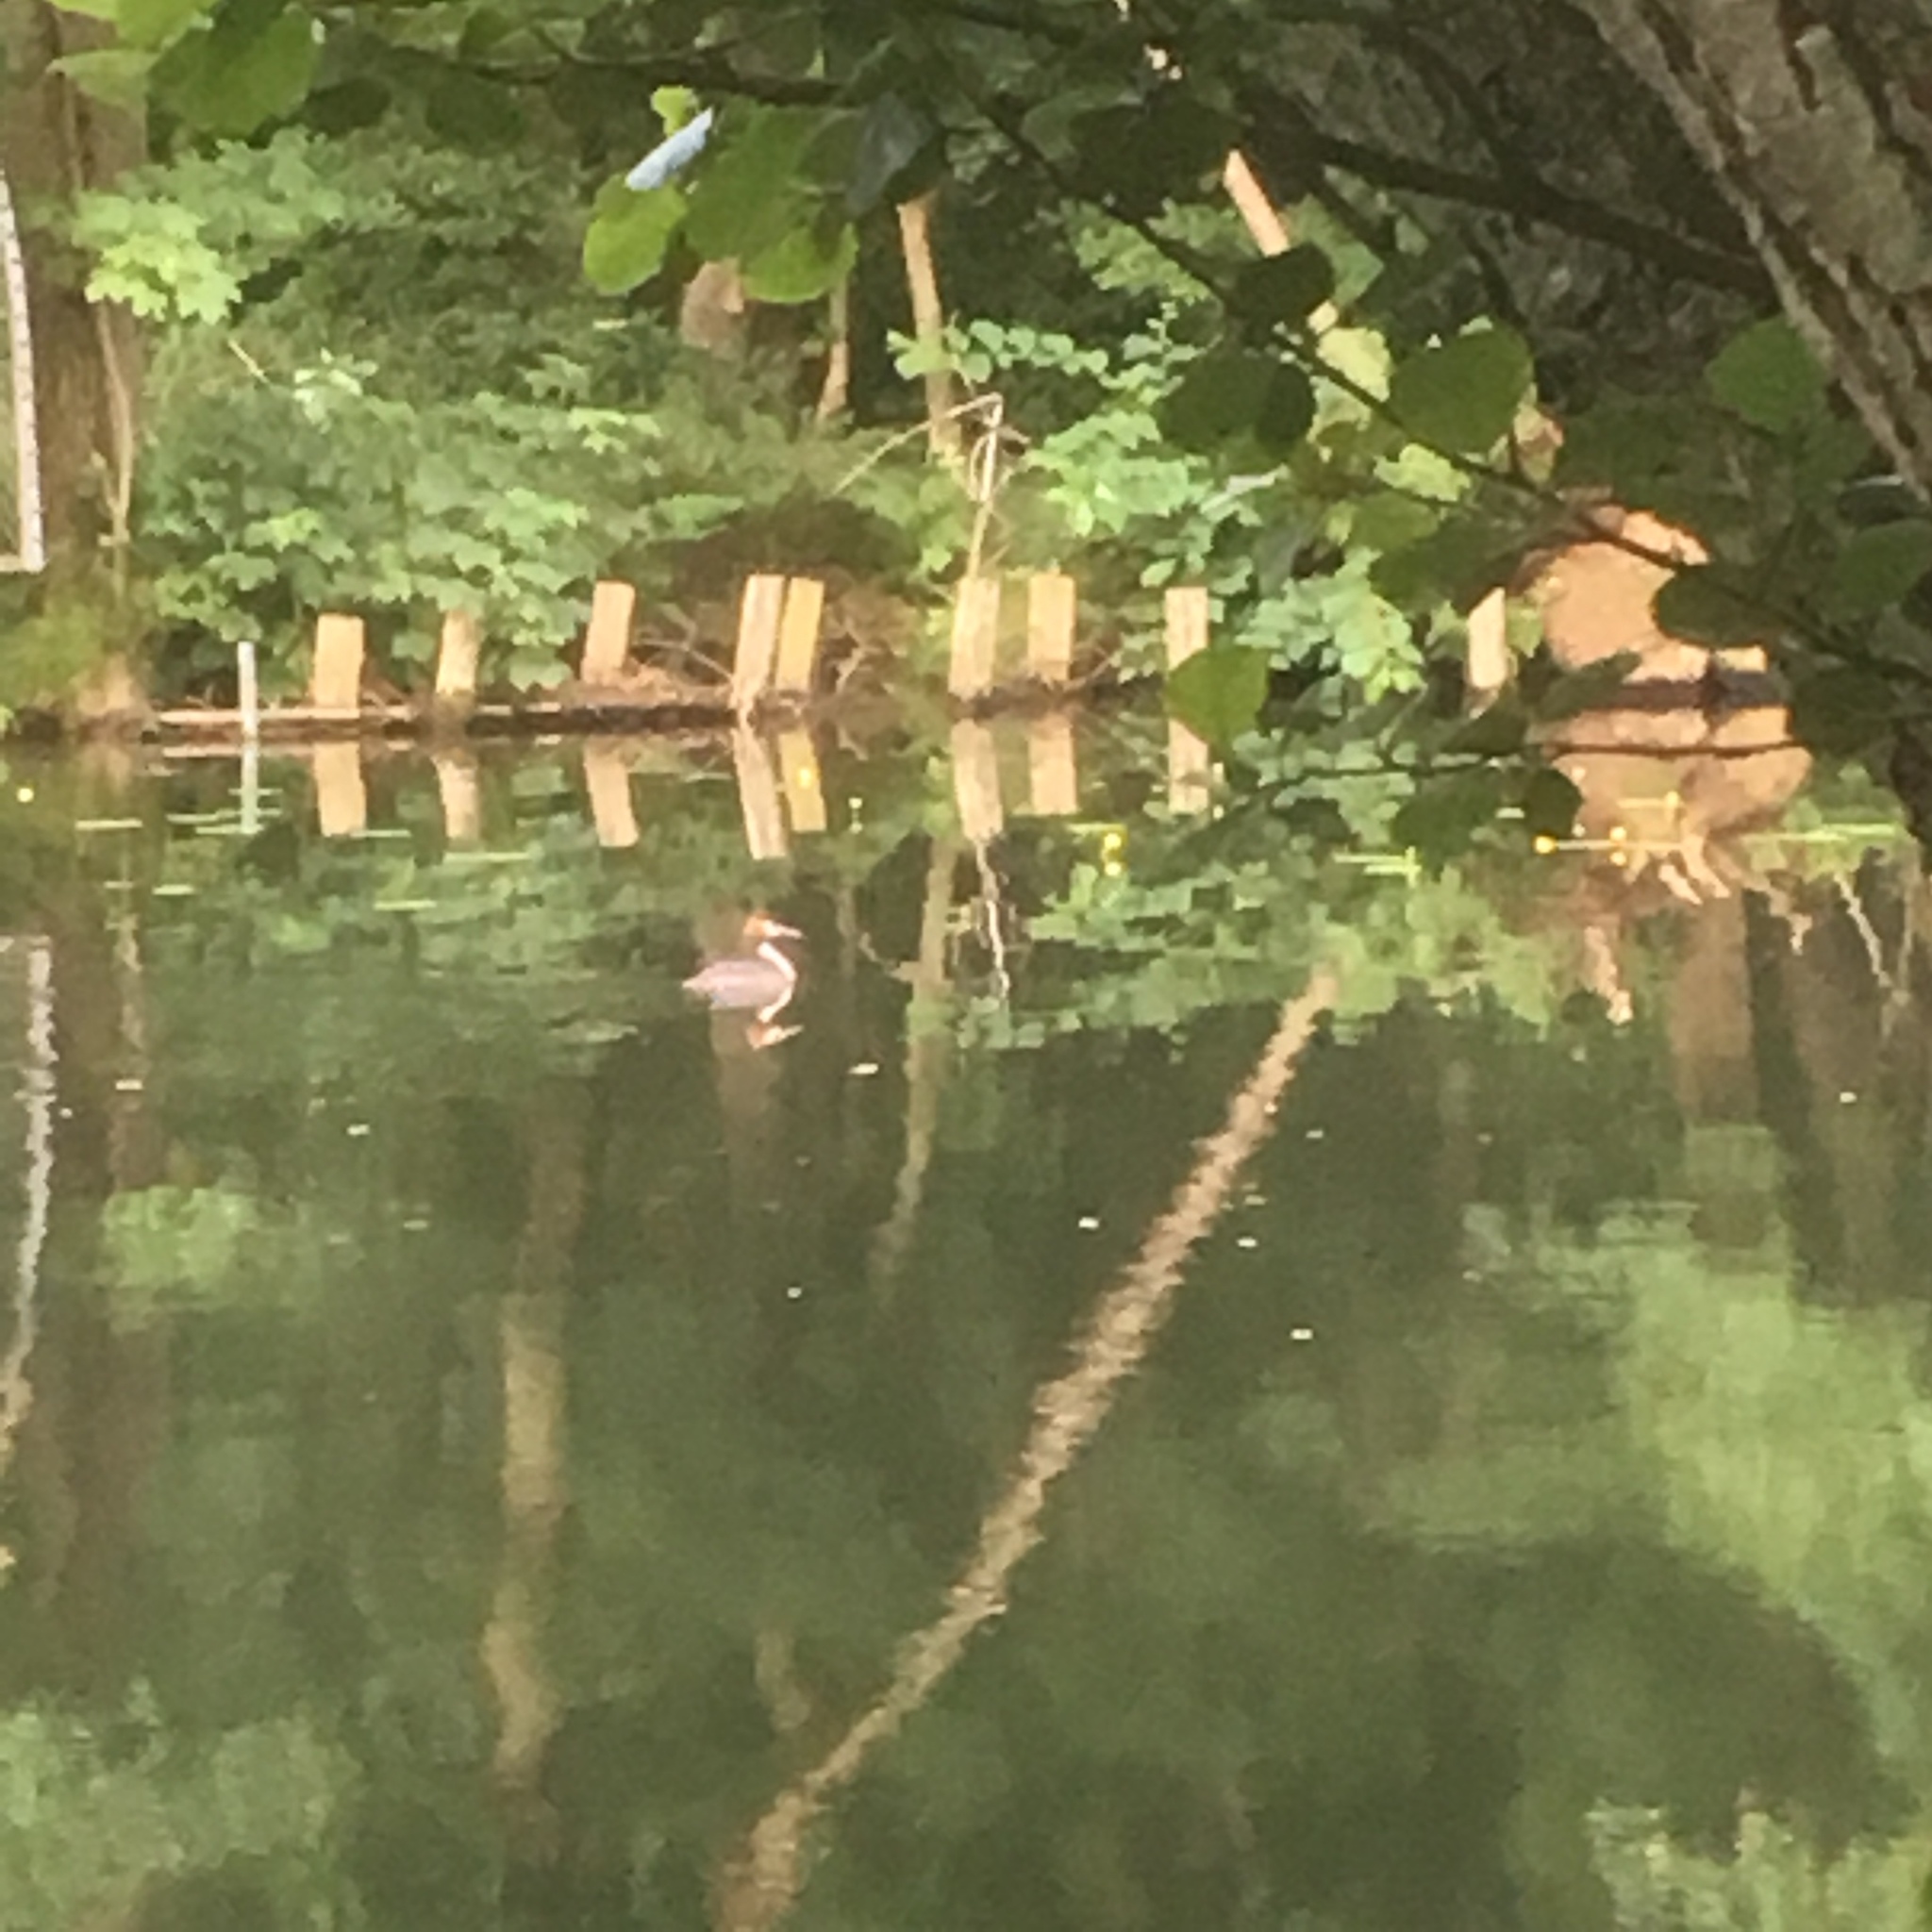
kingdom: Animalia
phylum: Chordata
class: Aves
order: Podicipediformes
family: Podicipedidae
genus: Podiceps
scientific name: Podiceps cristatus
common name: Great crested grebe
